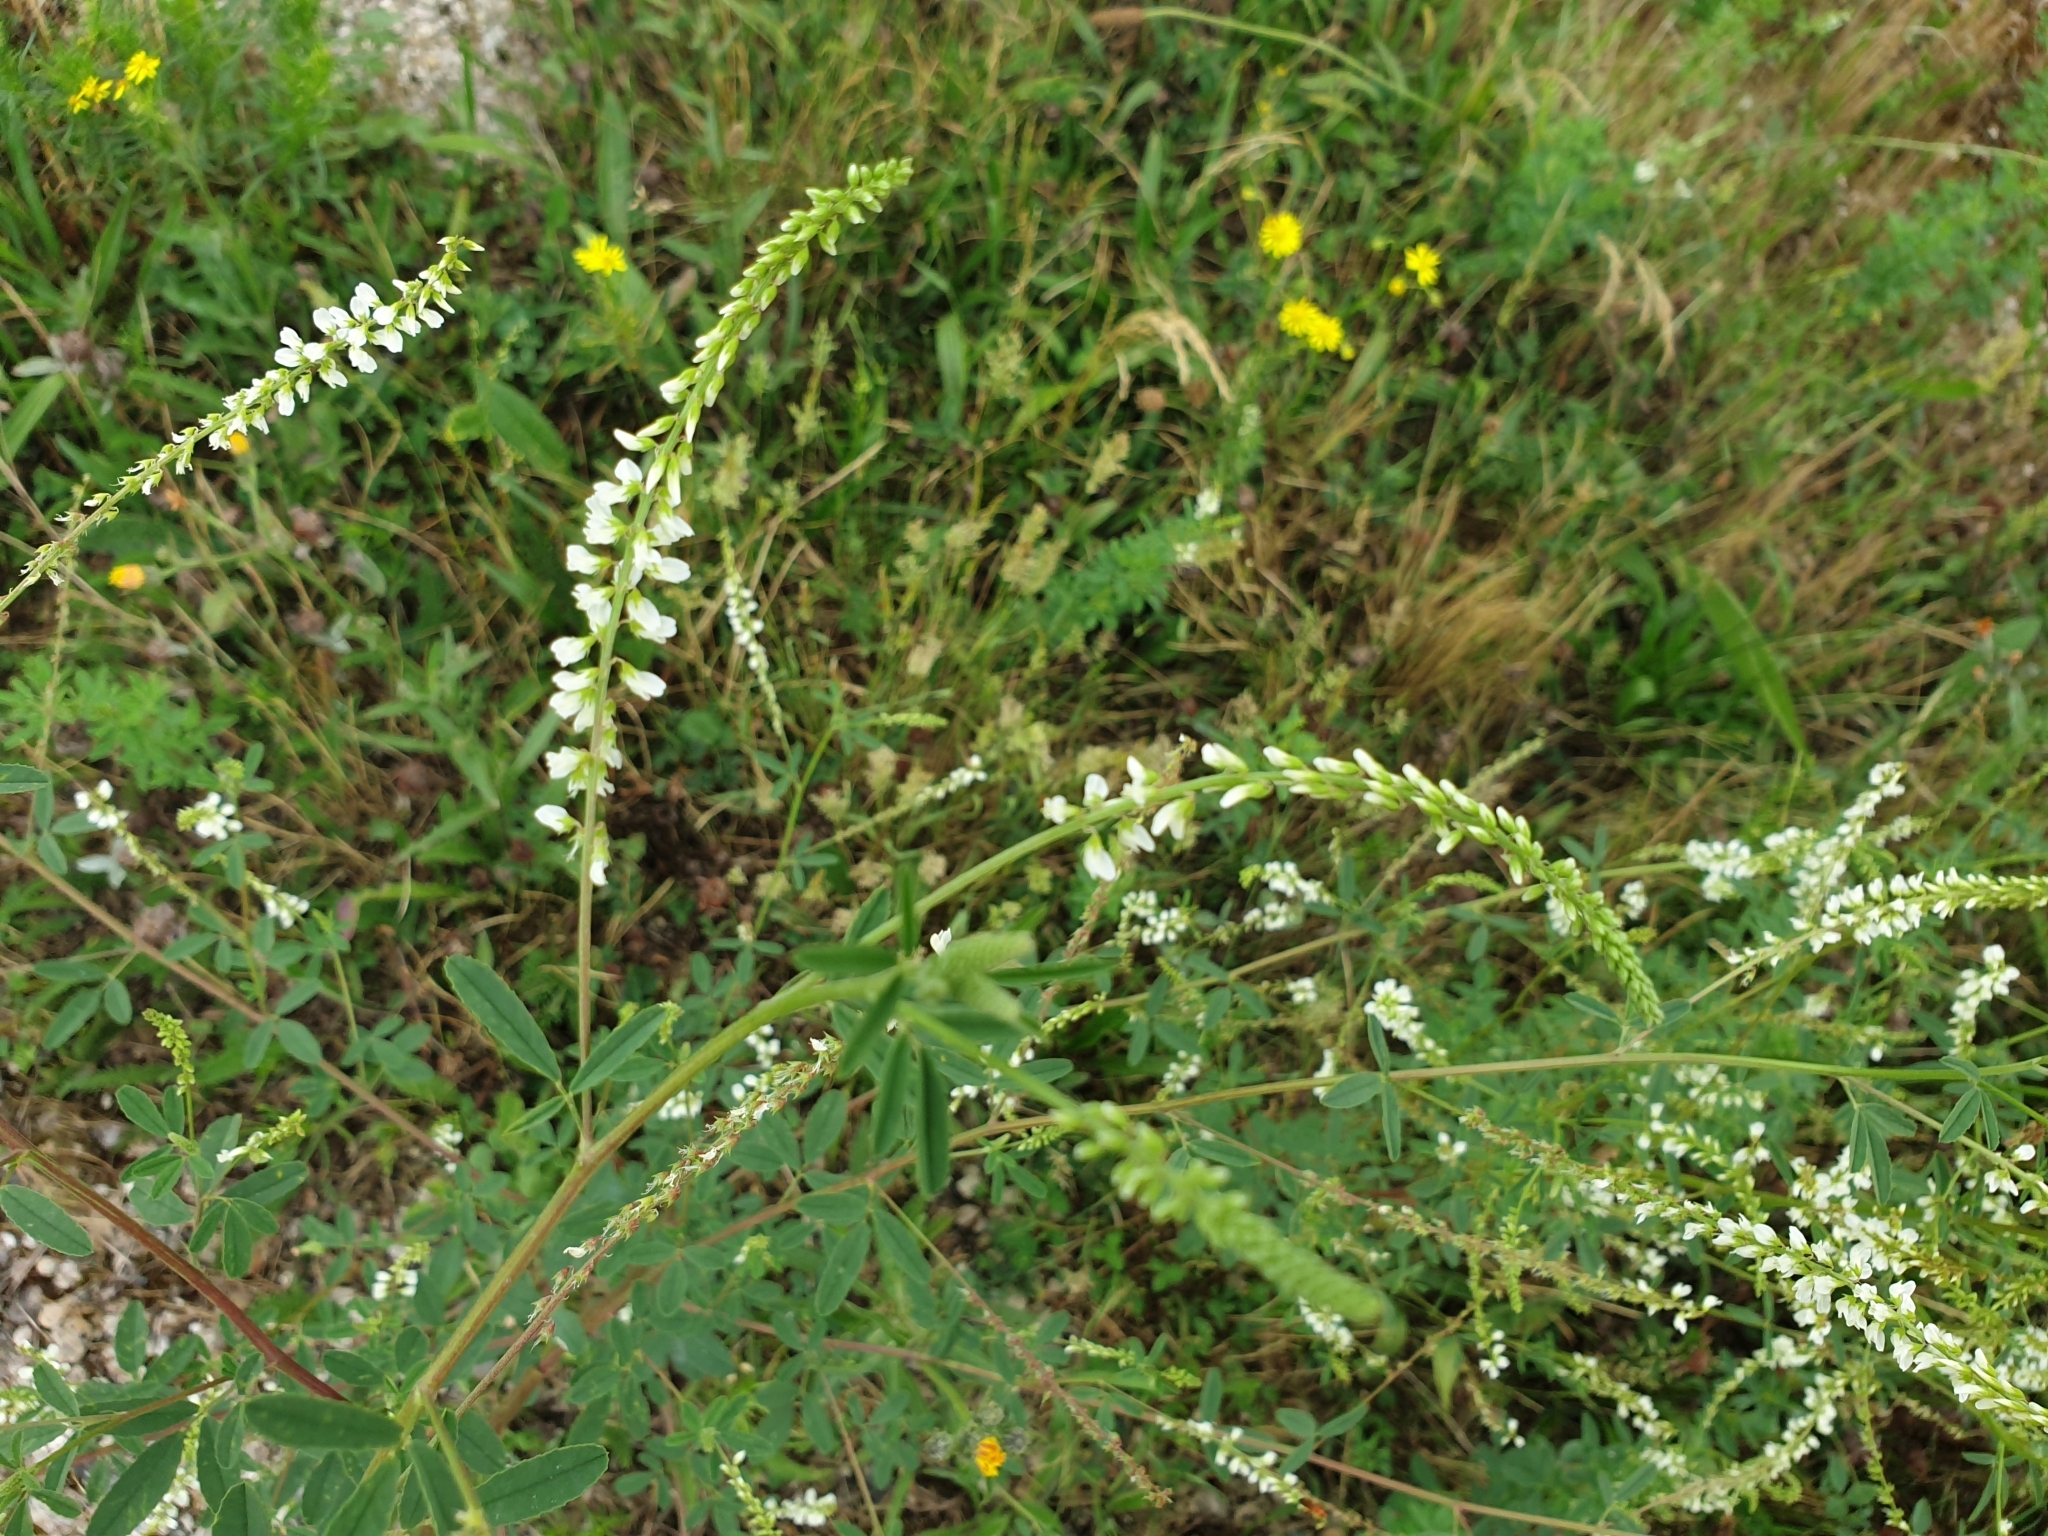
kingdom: Plantae
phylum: Tracheophyta
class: Magnoliopsida
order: Fabales
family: Fabaceae
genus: Melilotus
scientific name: Melilotus albus
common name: White melilot
